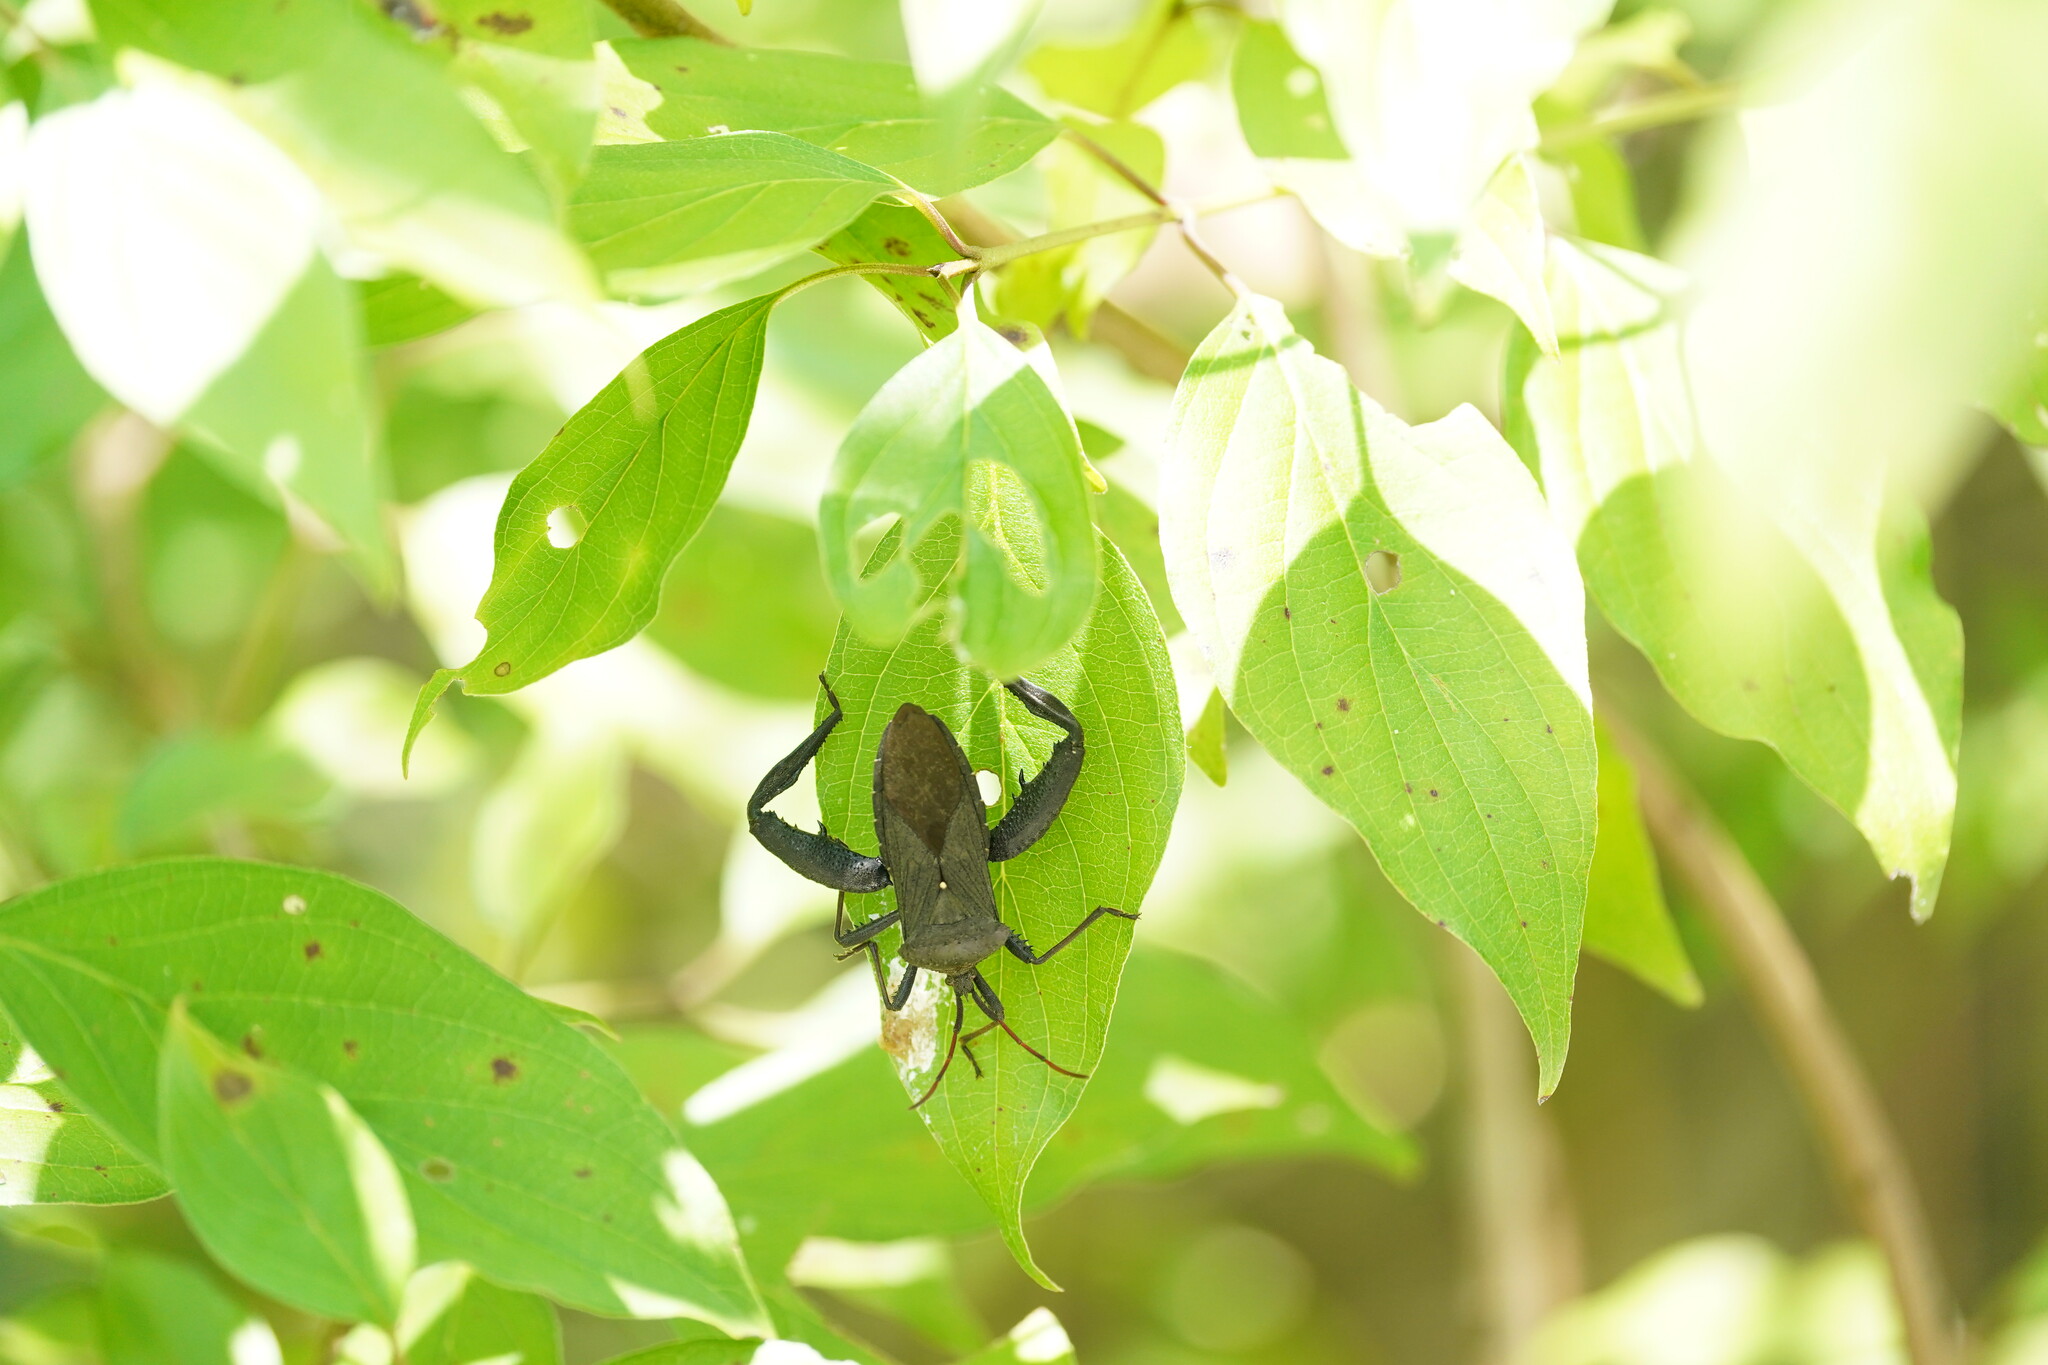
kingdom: Animalia
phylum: Arthropoda
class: Insecta
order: Hemiptera
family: Coreidae
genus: Acanthocephala
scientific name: Acanthocephala femorata
